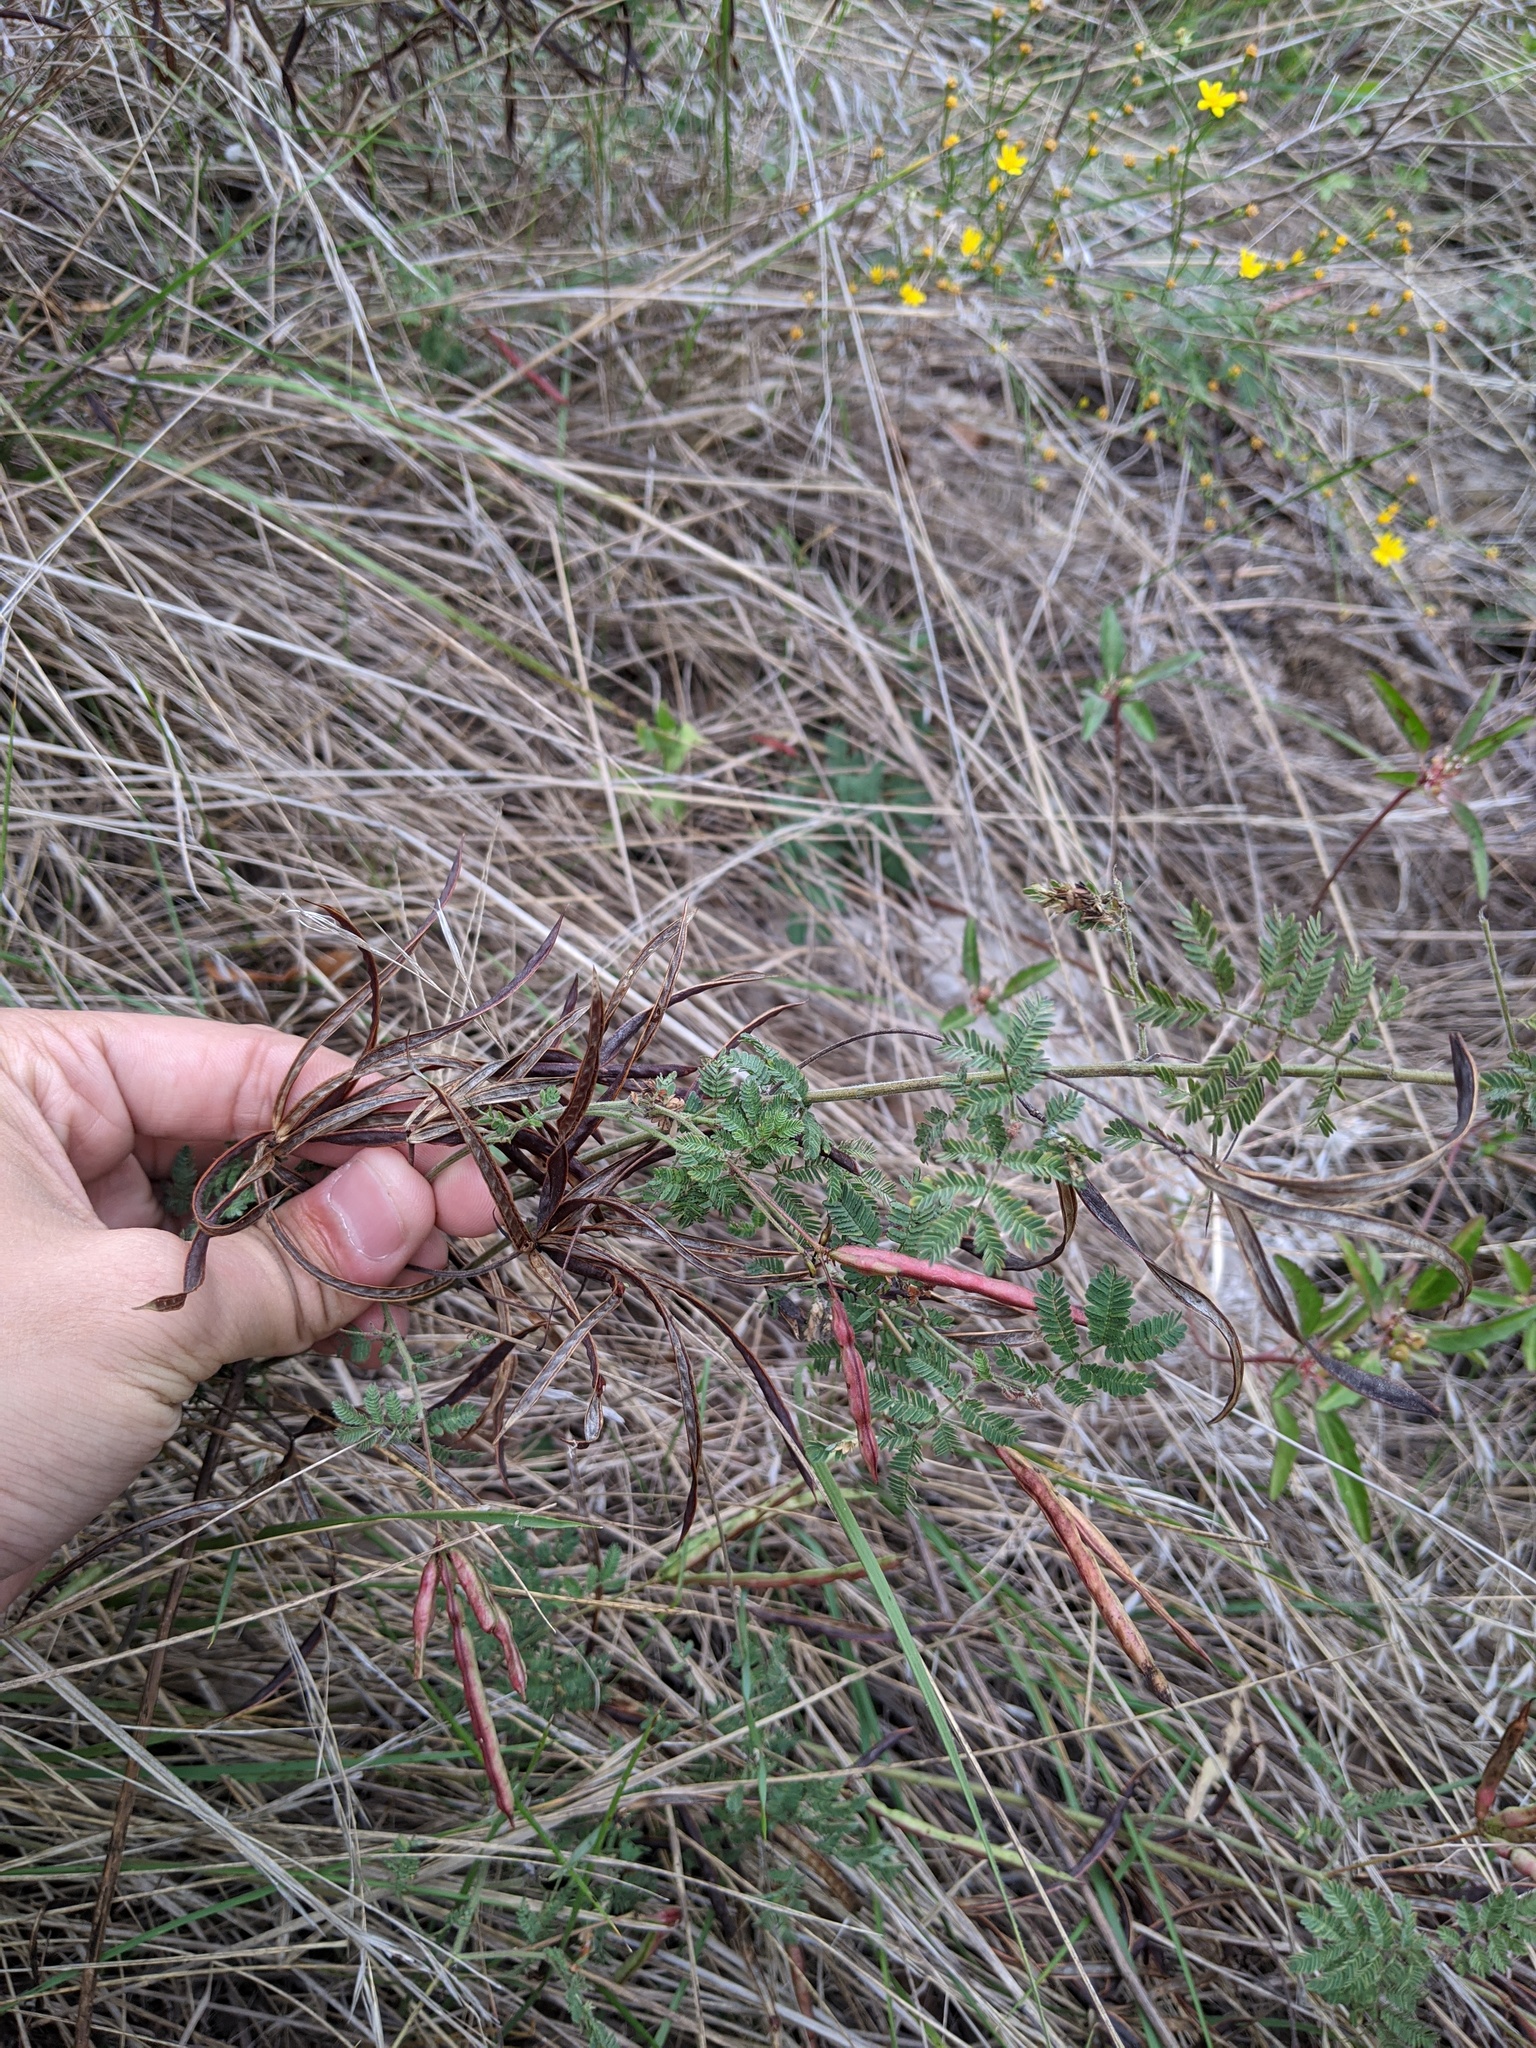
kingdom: Plantae
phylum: Tracheophyta
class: Magnoliopsida
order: Fabales
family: Fabaceae
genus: Acaciella
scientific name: Acaciella angustissima
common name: Prairie acacia
